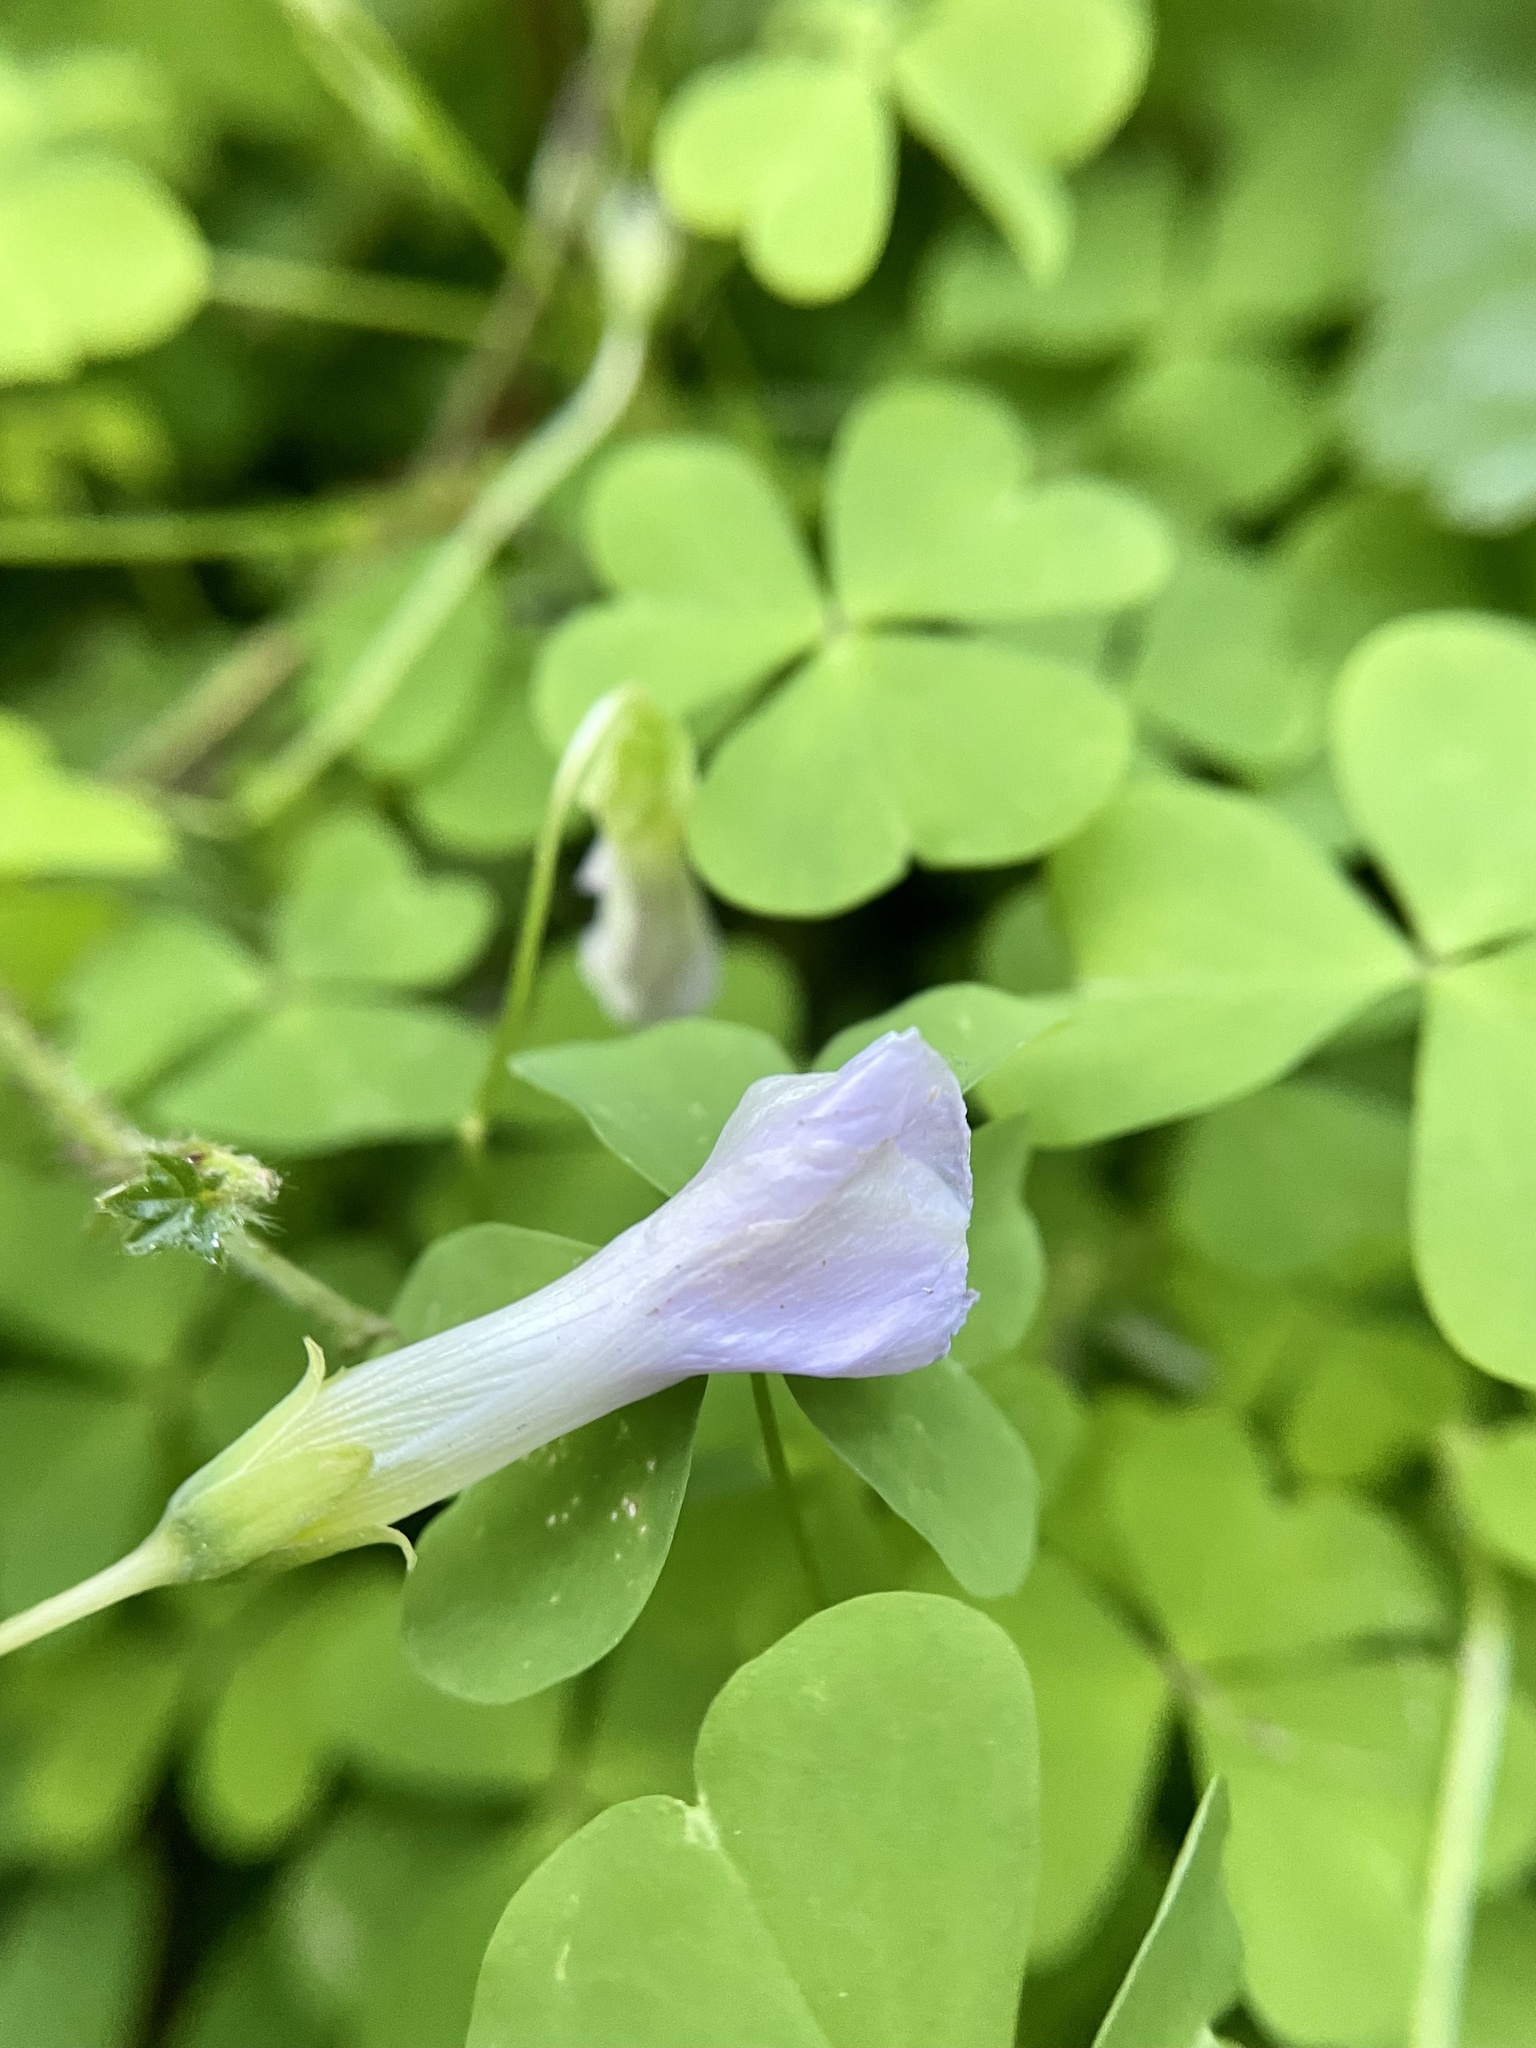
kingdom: Plantae
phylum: Tracheophyta
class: Magnoliopsida
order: Oxalidales
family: Oxalidaceae
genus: Oxalis
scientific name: Oxalis incarnata
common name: Pale pink-sorrel
